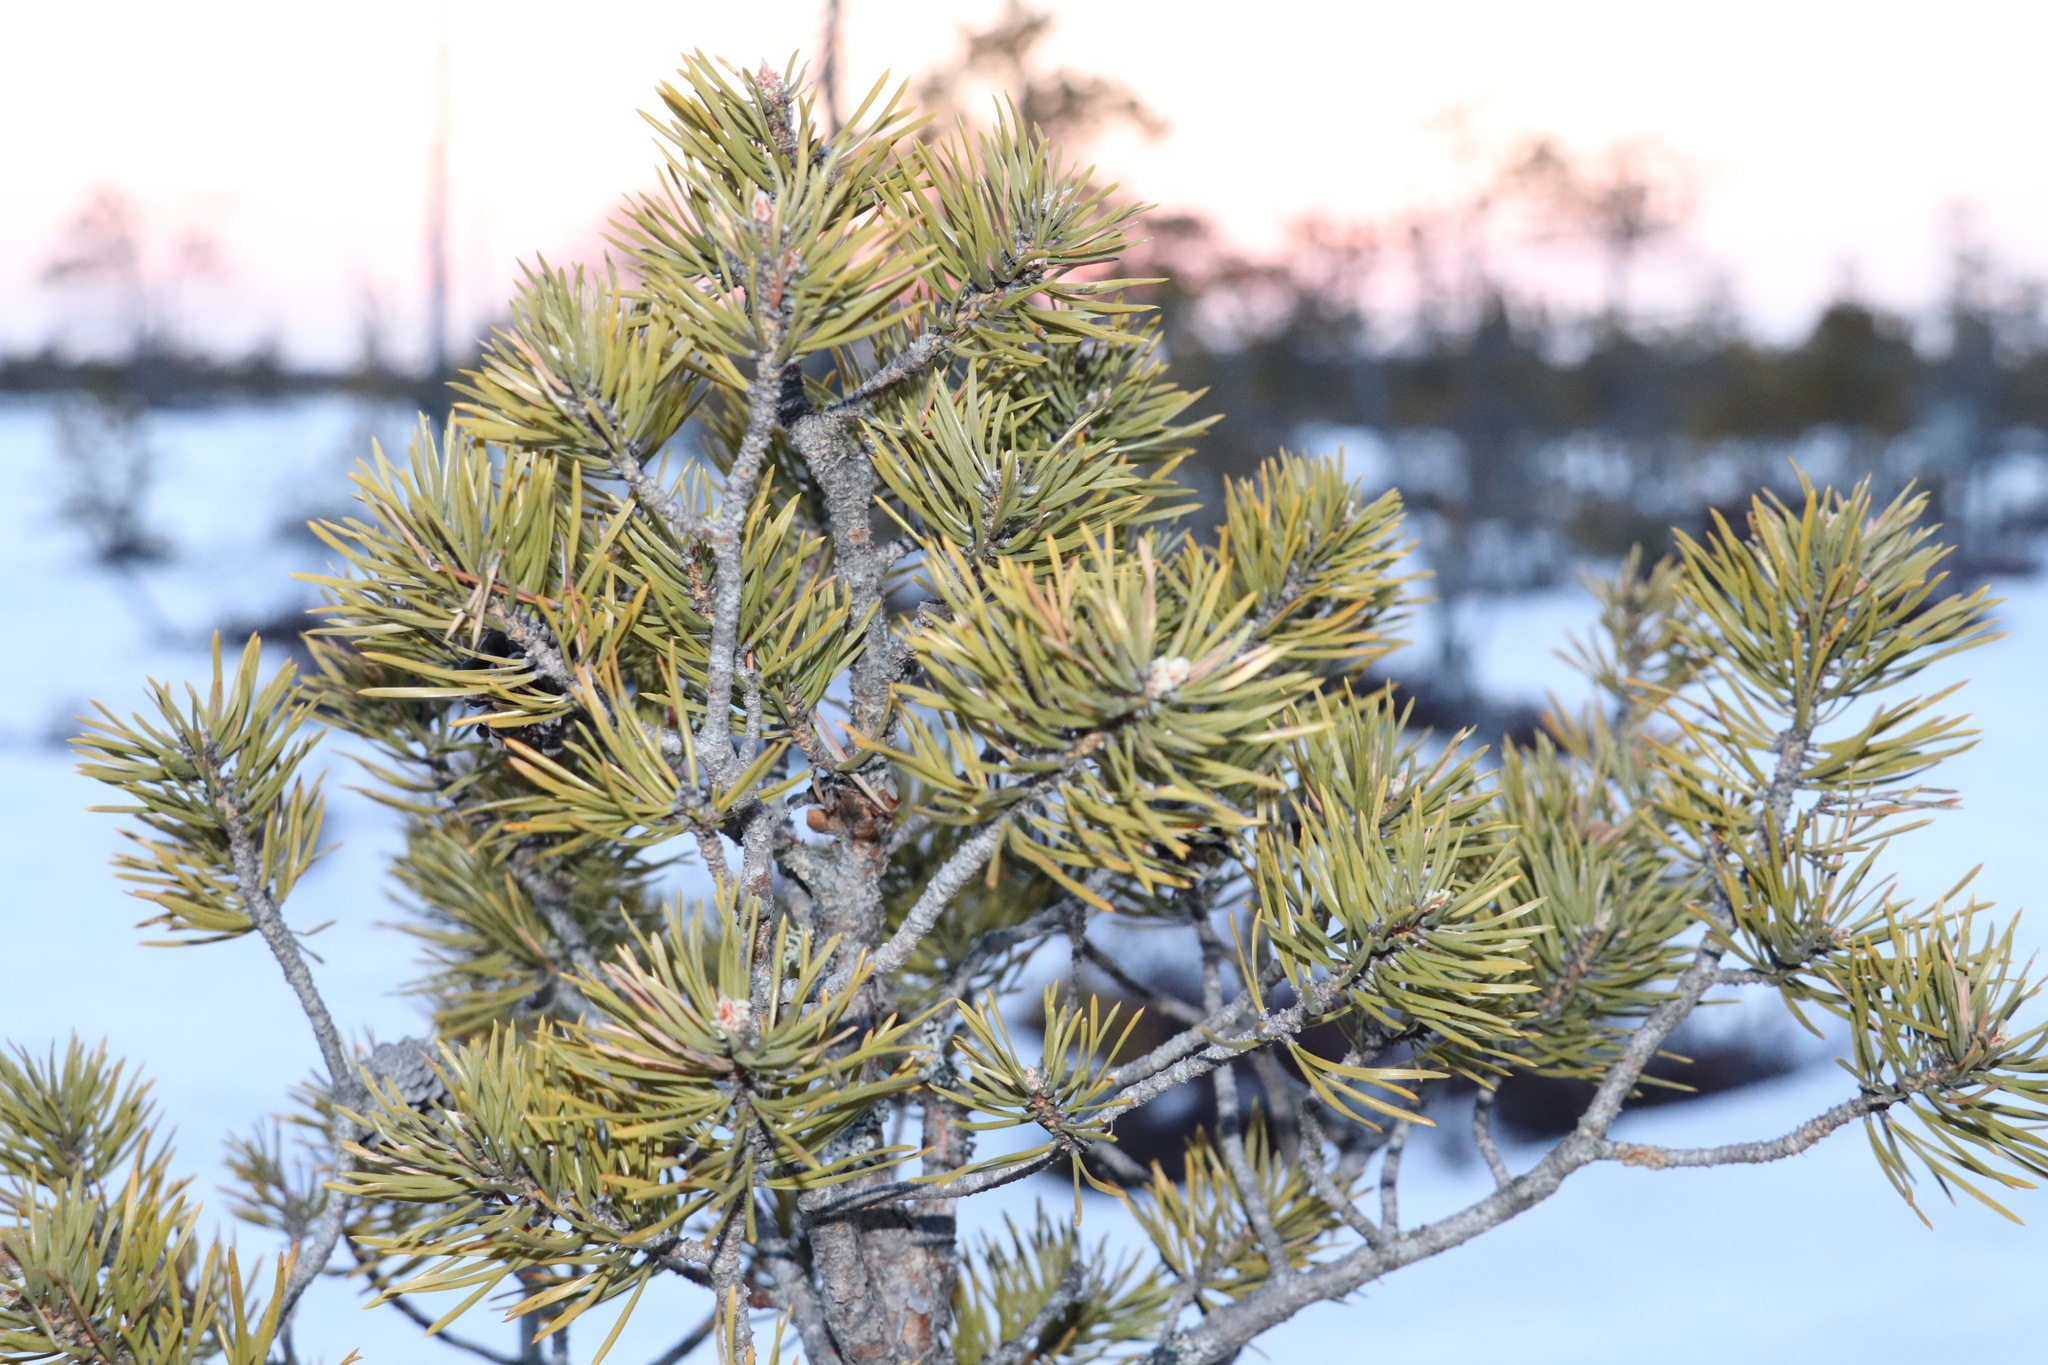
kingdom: Plantae
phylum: Tracheophyta
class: Pinopsida
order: Pinales
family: Pinaceae
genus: Pinus
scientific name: Pinus sylvestris
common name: Scots pine
